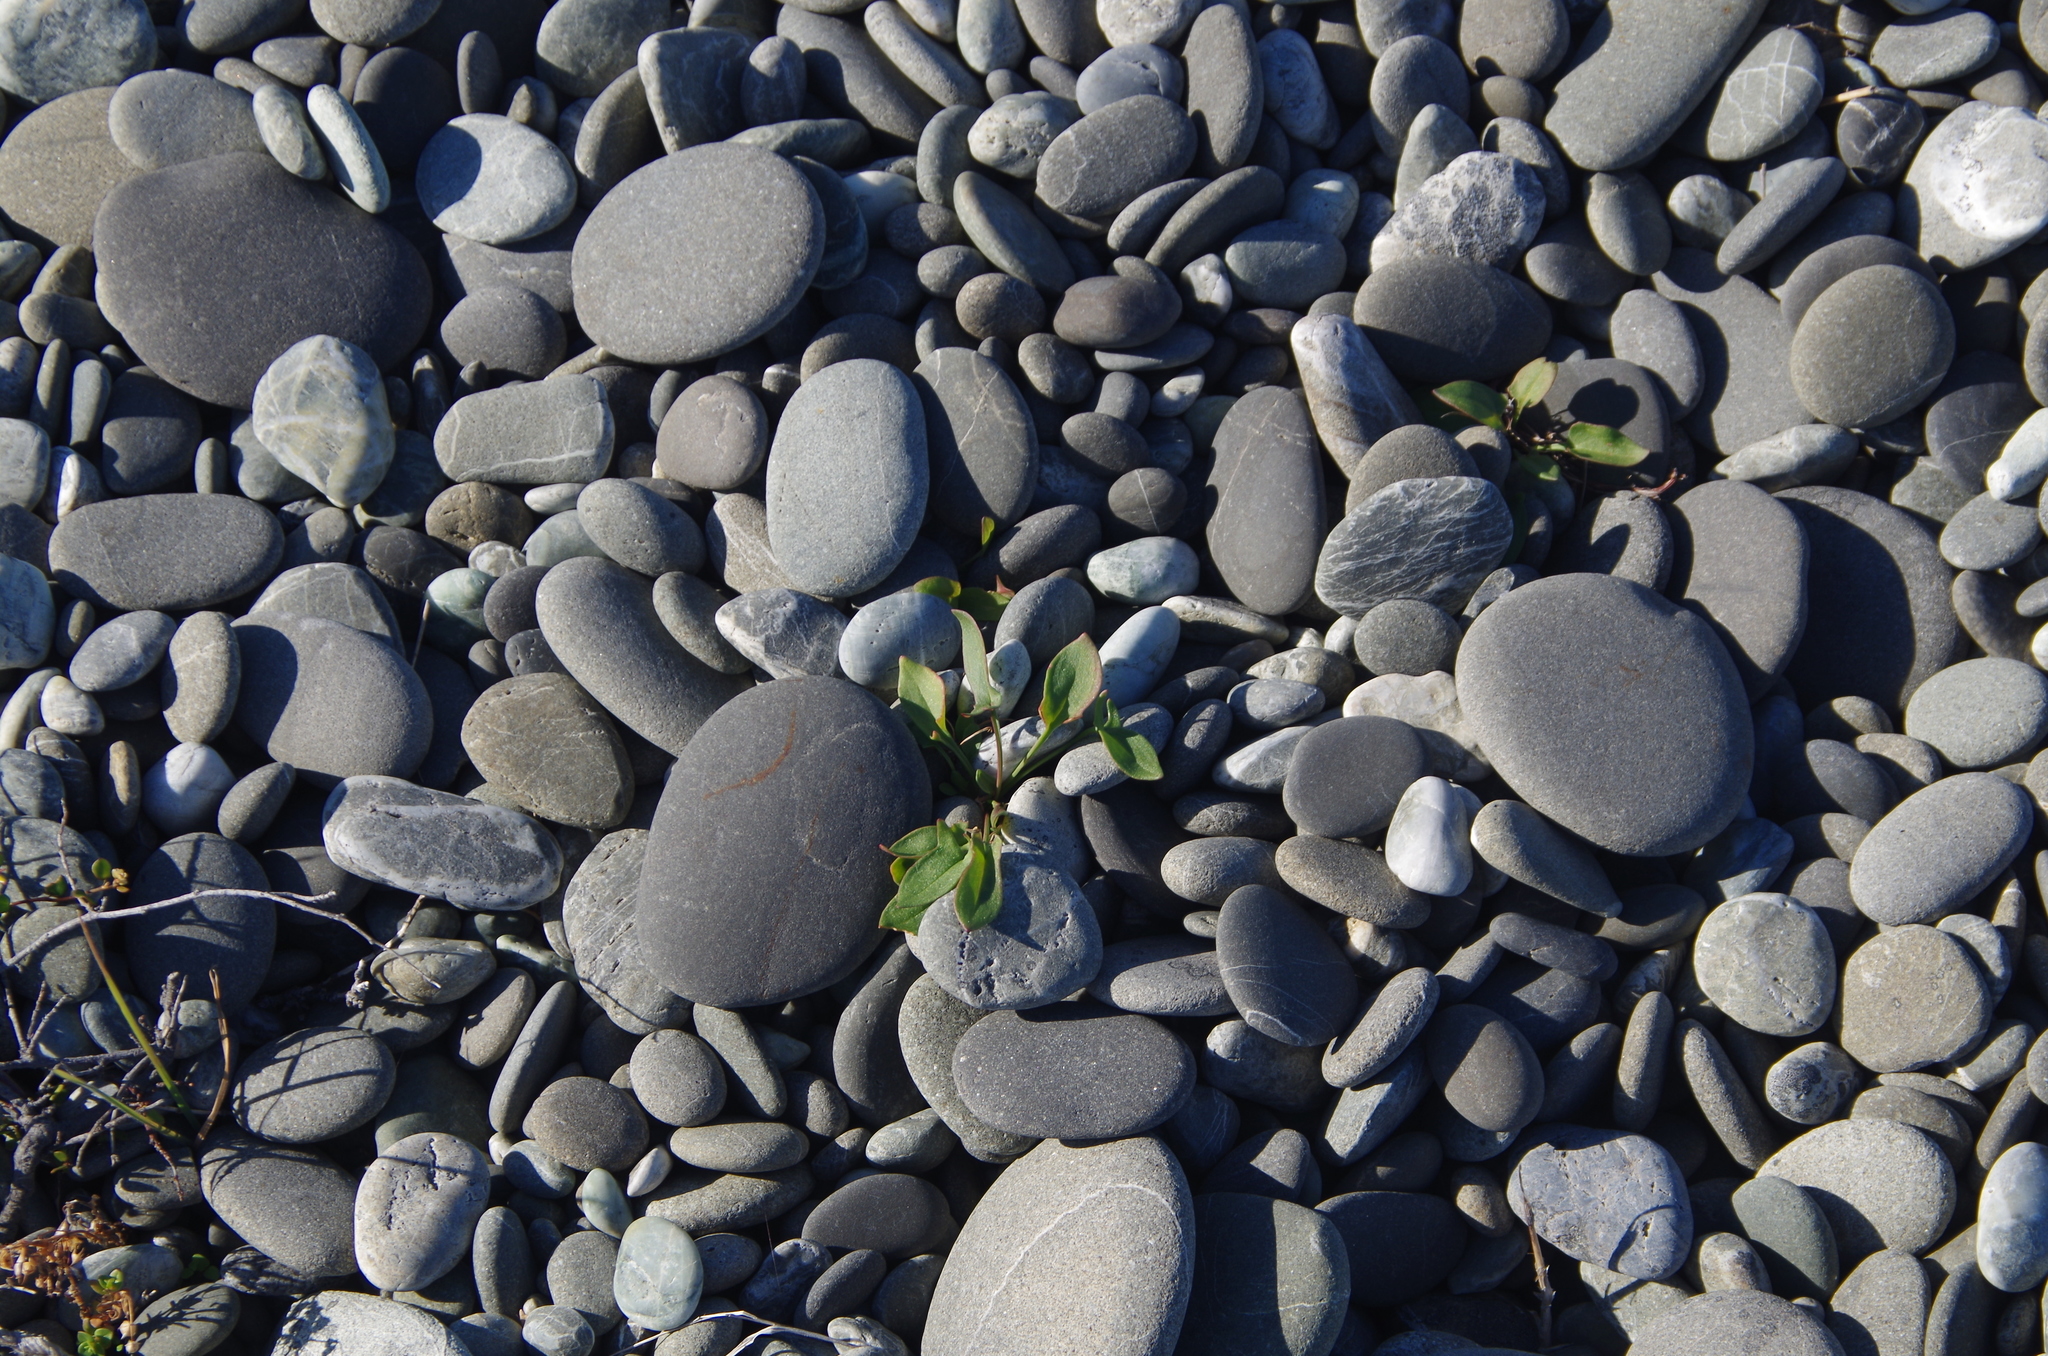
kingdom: Plantae
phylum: Tracheophyta
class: Magnoliopsida
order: Caryophyllales
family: Polygonaceae
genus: Rumex
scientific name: Rumex acetosella
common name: Common sheep sorrel
